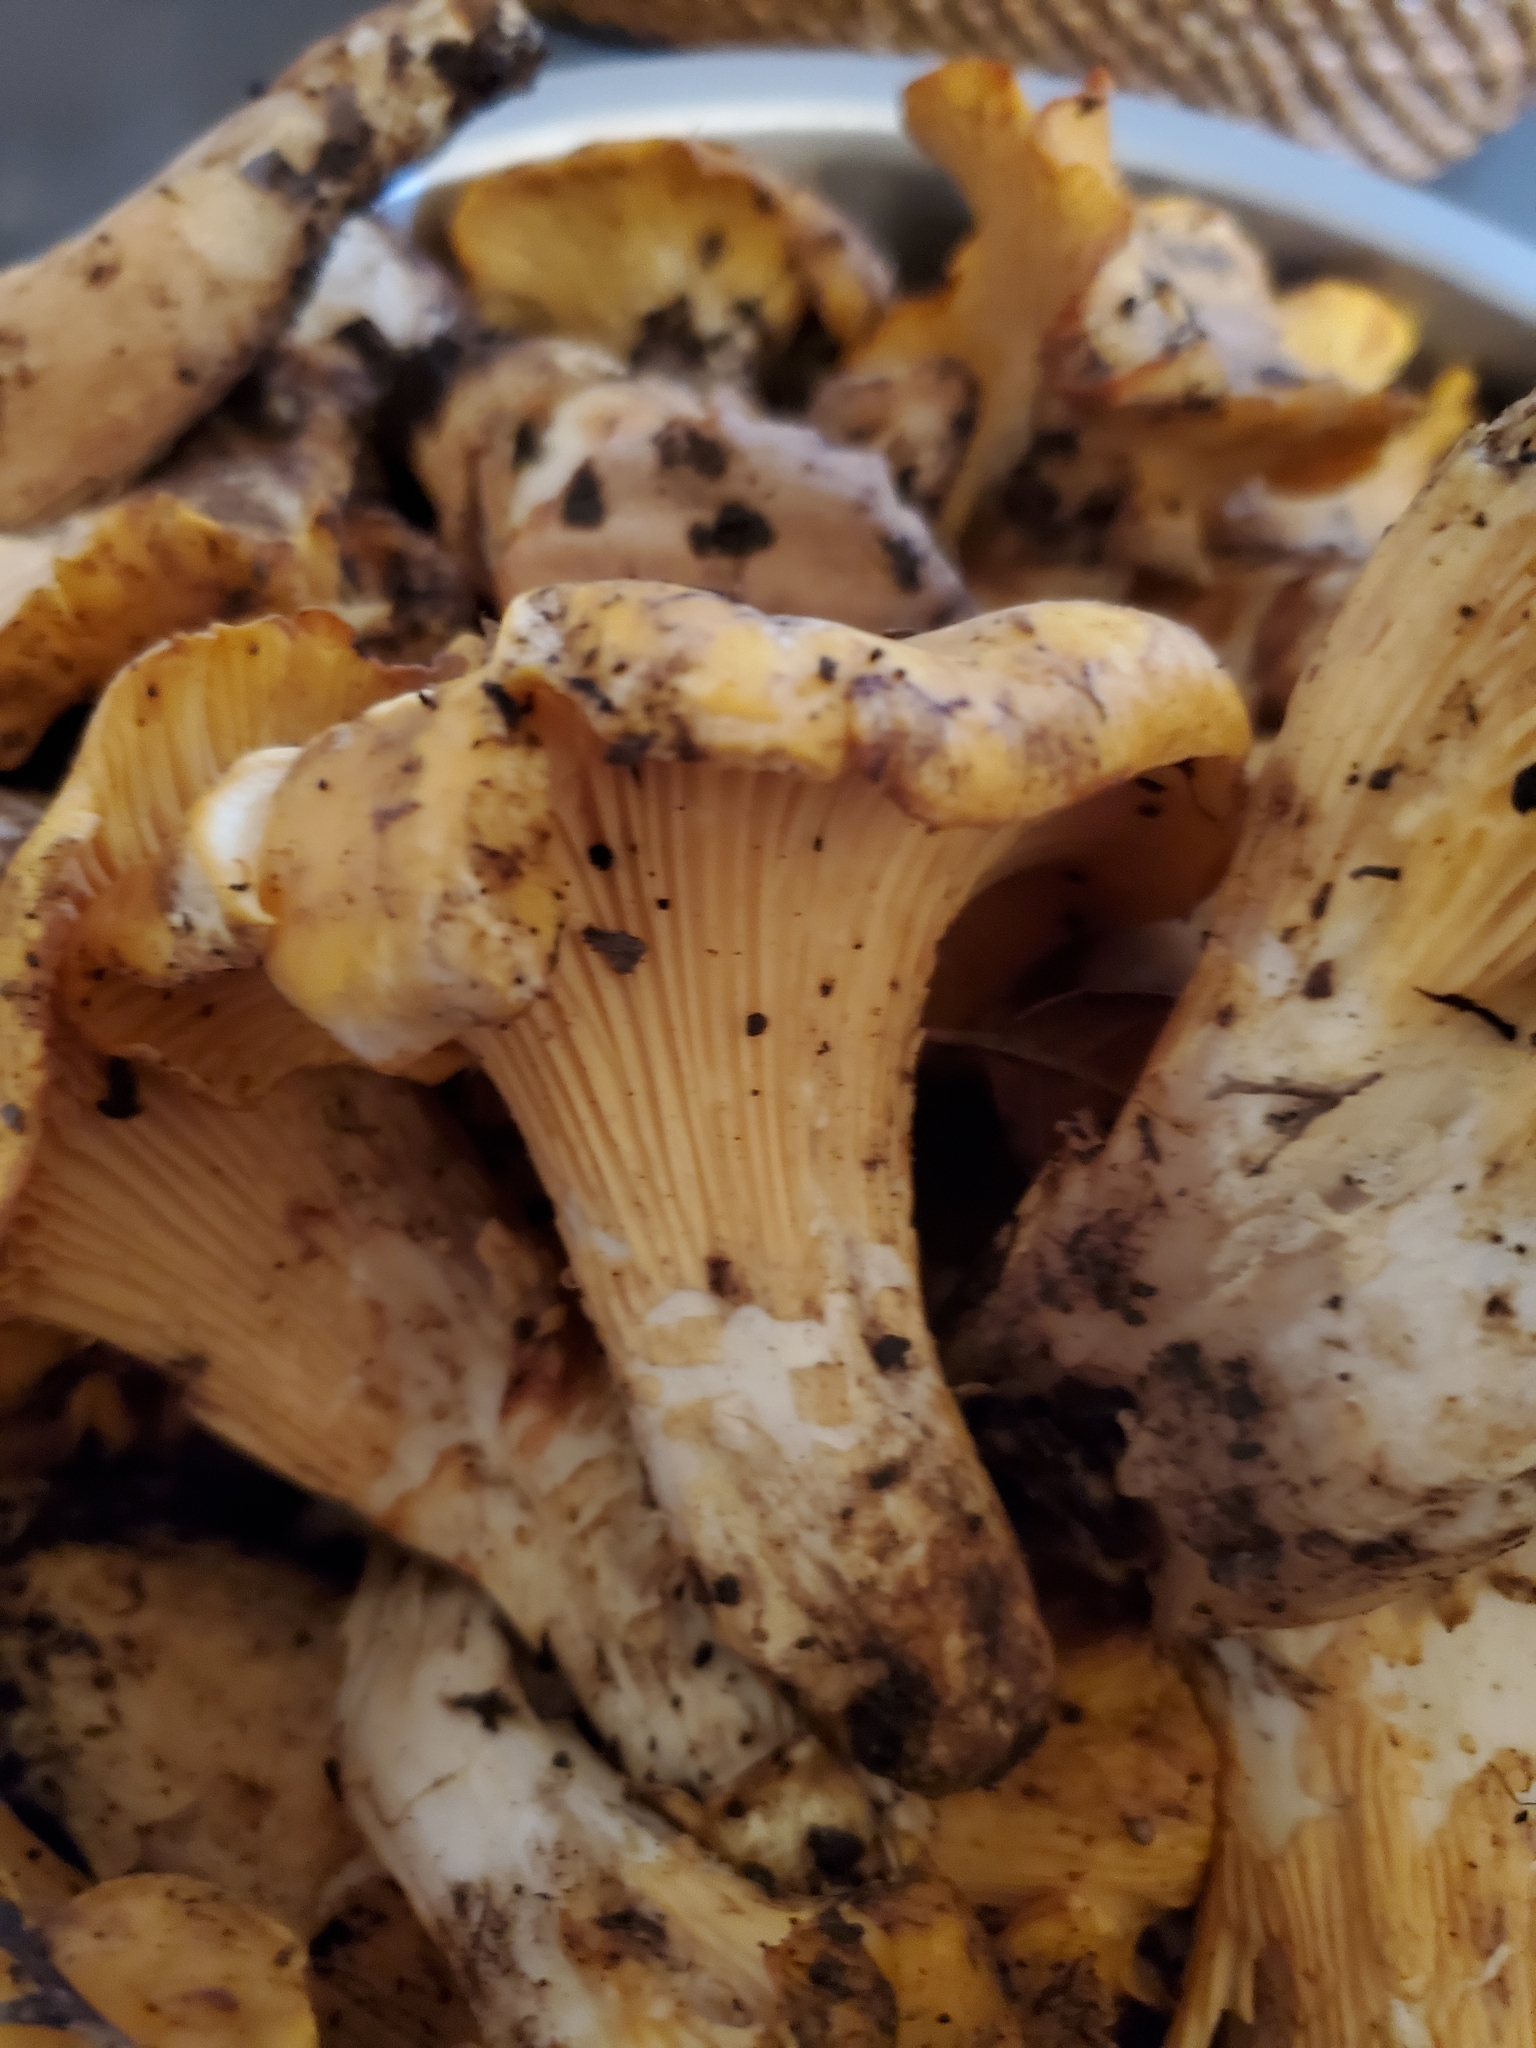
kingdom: Fungi
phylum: Basidiomycota
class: Agaricomycetes
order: Cantharellales
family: Hydnaceae
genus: Cantharellus
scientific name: Cantharellus californicus
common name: California golden chanterelle
